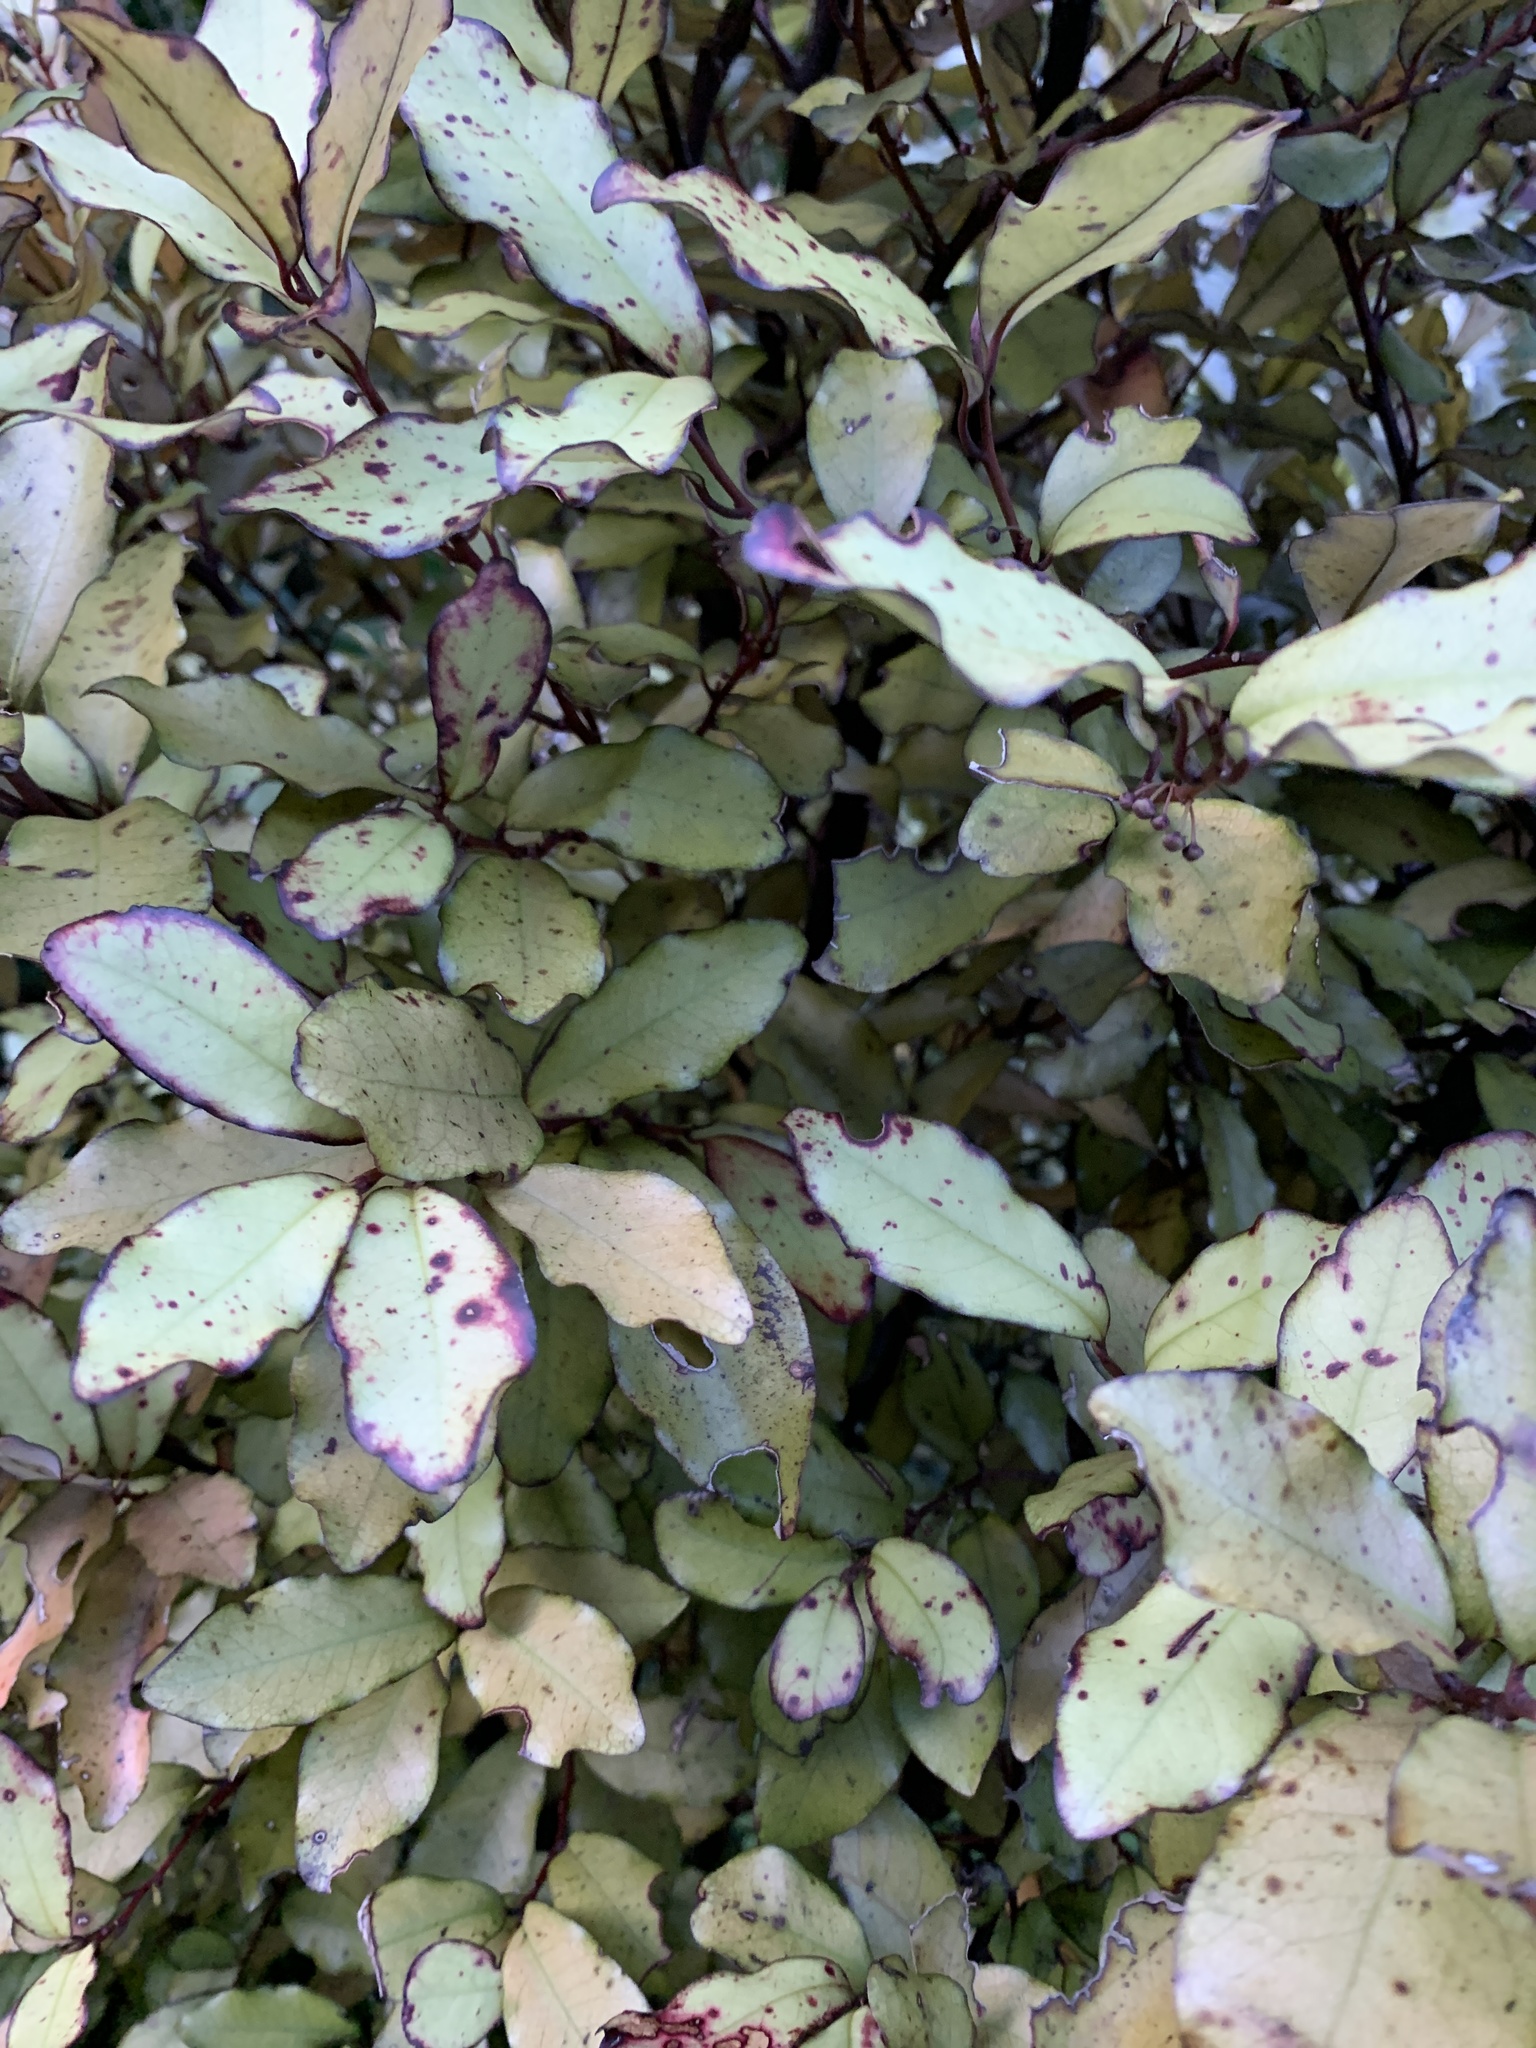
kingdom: Plantae
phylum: Tracheophyta
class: Magnoliopsida
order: Canellales
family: Winteraceae
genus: Pseudowintera
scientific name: Pseudowintera colorata
